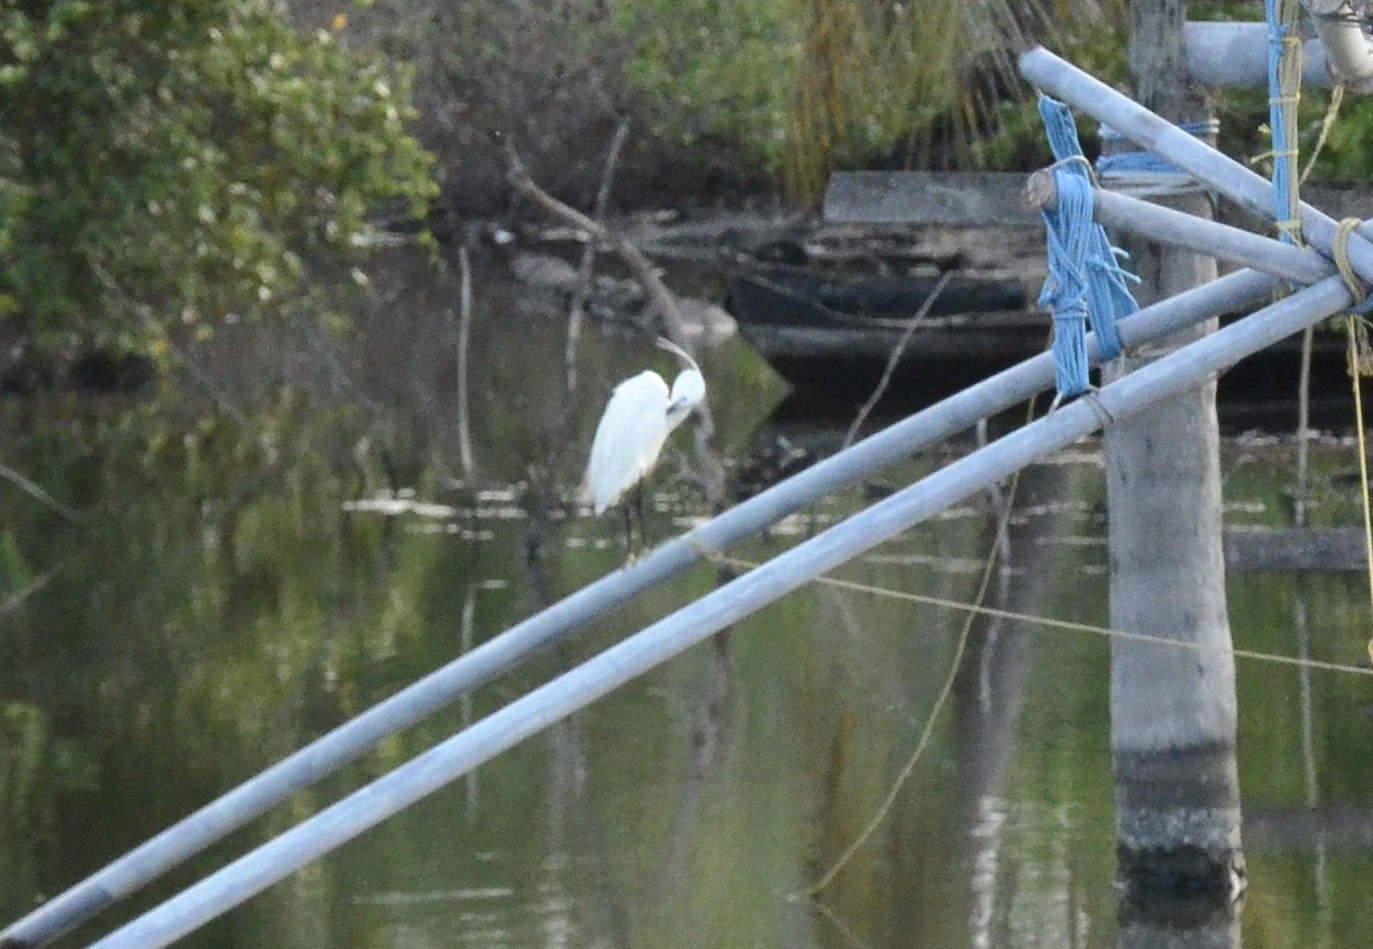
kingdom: Animalia
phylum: Chordata
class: Aves
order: Pelecaniformes
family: Ardeidae
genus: Egretta
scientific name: Egretta garzetta
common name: Little egret
